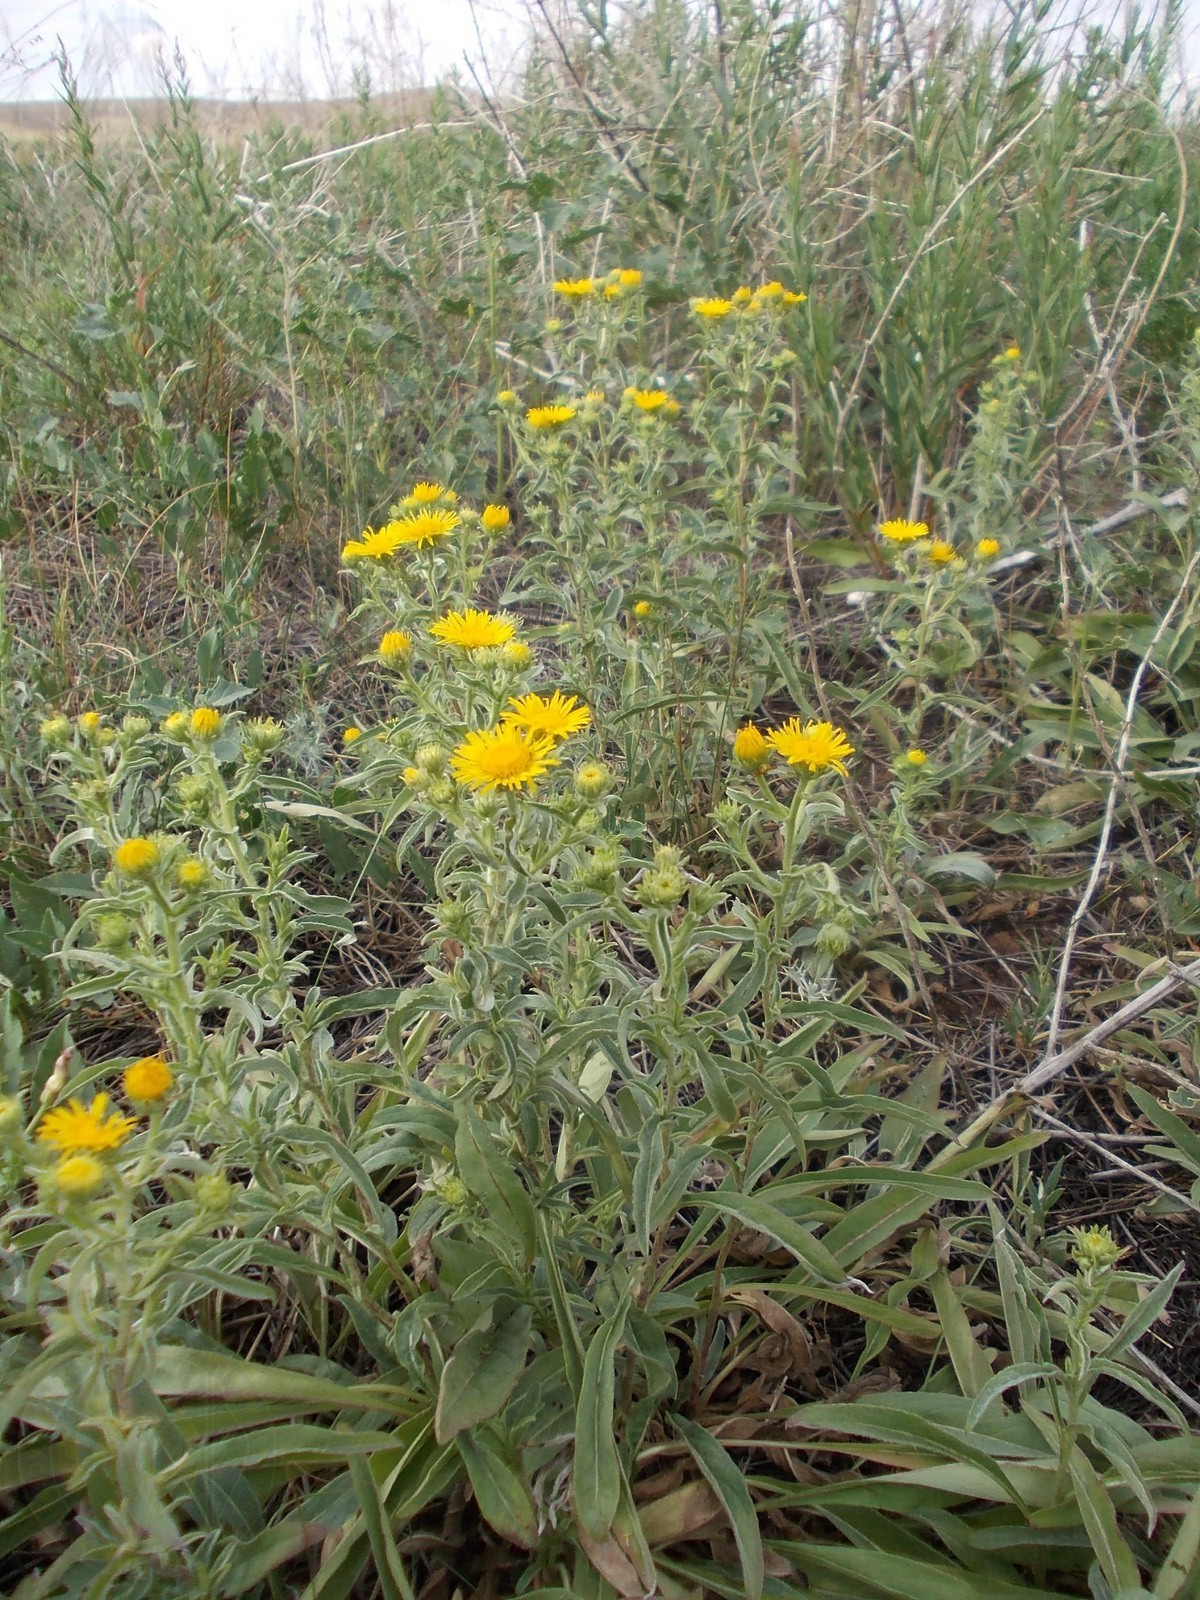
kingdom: Plantae
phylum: Tracheophyta
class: Magnoliopsida
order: Asterales
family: Asteraceae
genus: Pentanema
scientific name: Pentanema britannicum
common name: British elecampane
